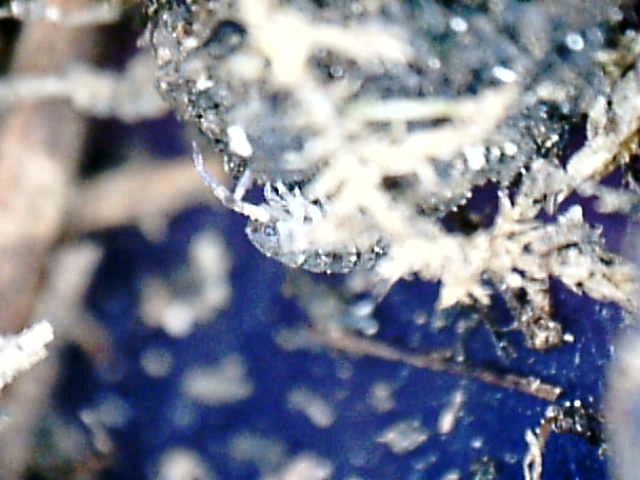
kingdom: Animalia
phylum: Arthropoda
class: Malacostraca
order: Isopoda
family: Porcellionidae
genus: Porcellio
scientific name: Porcellio scaber
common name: Common rough woodlouse
